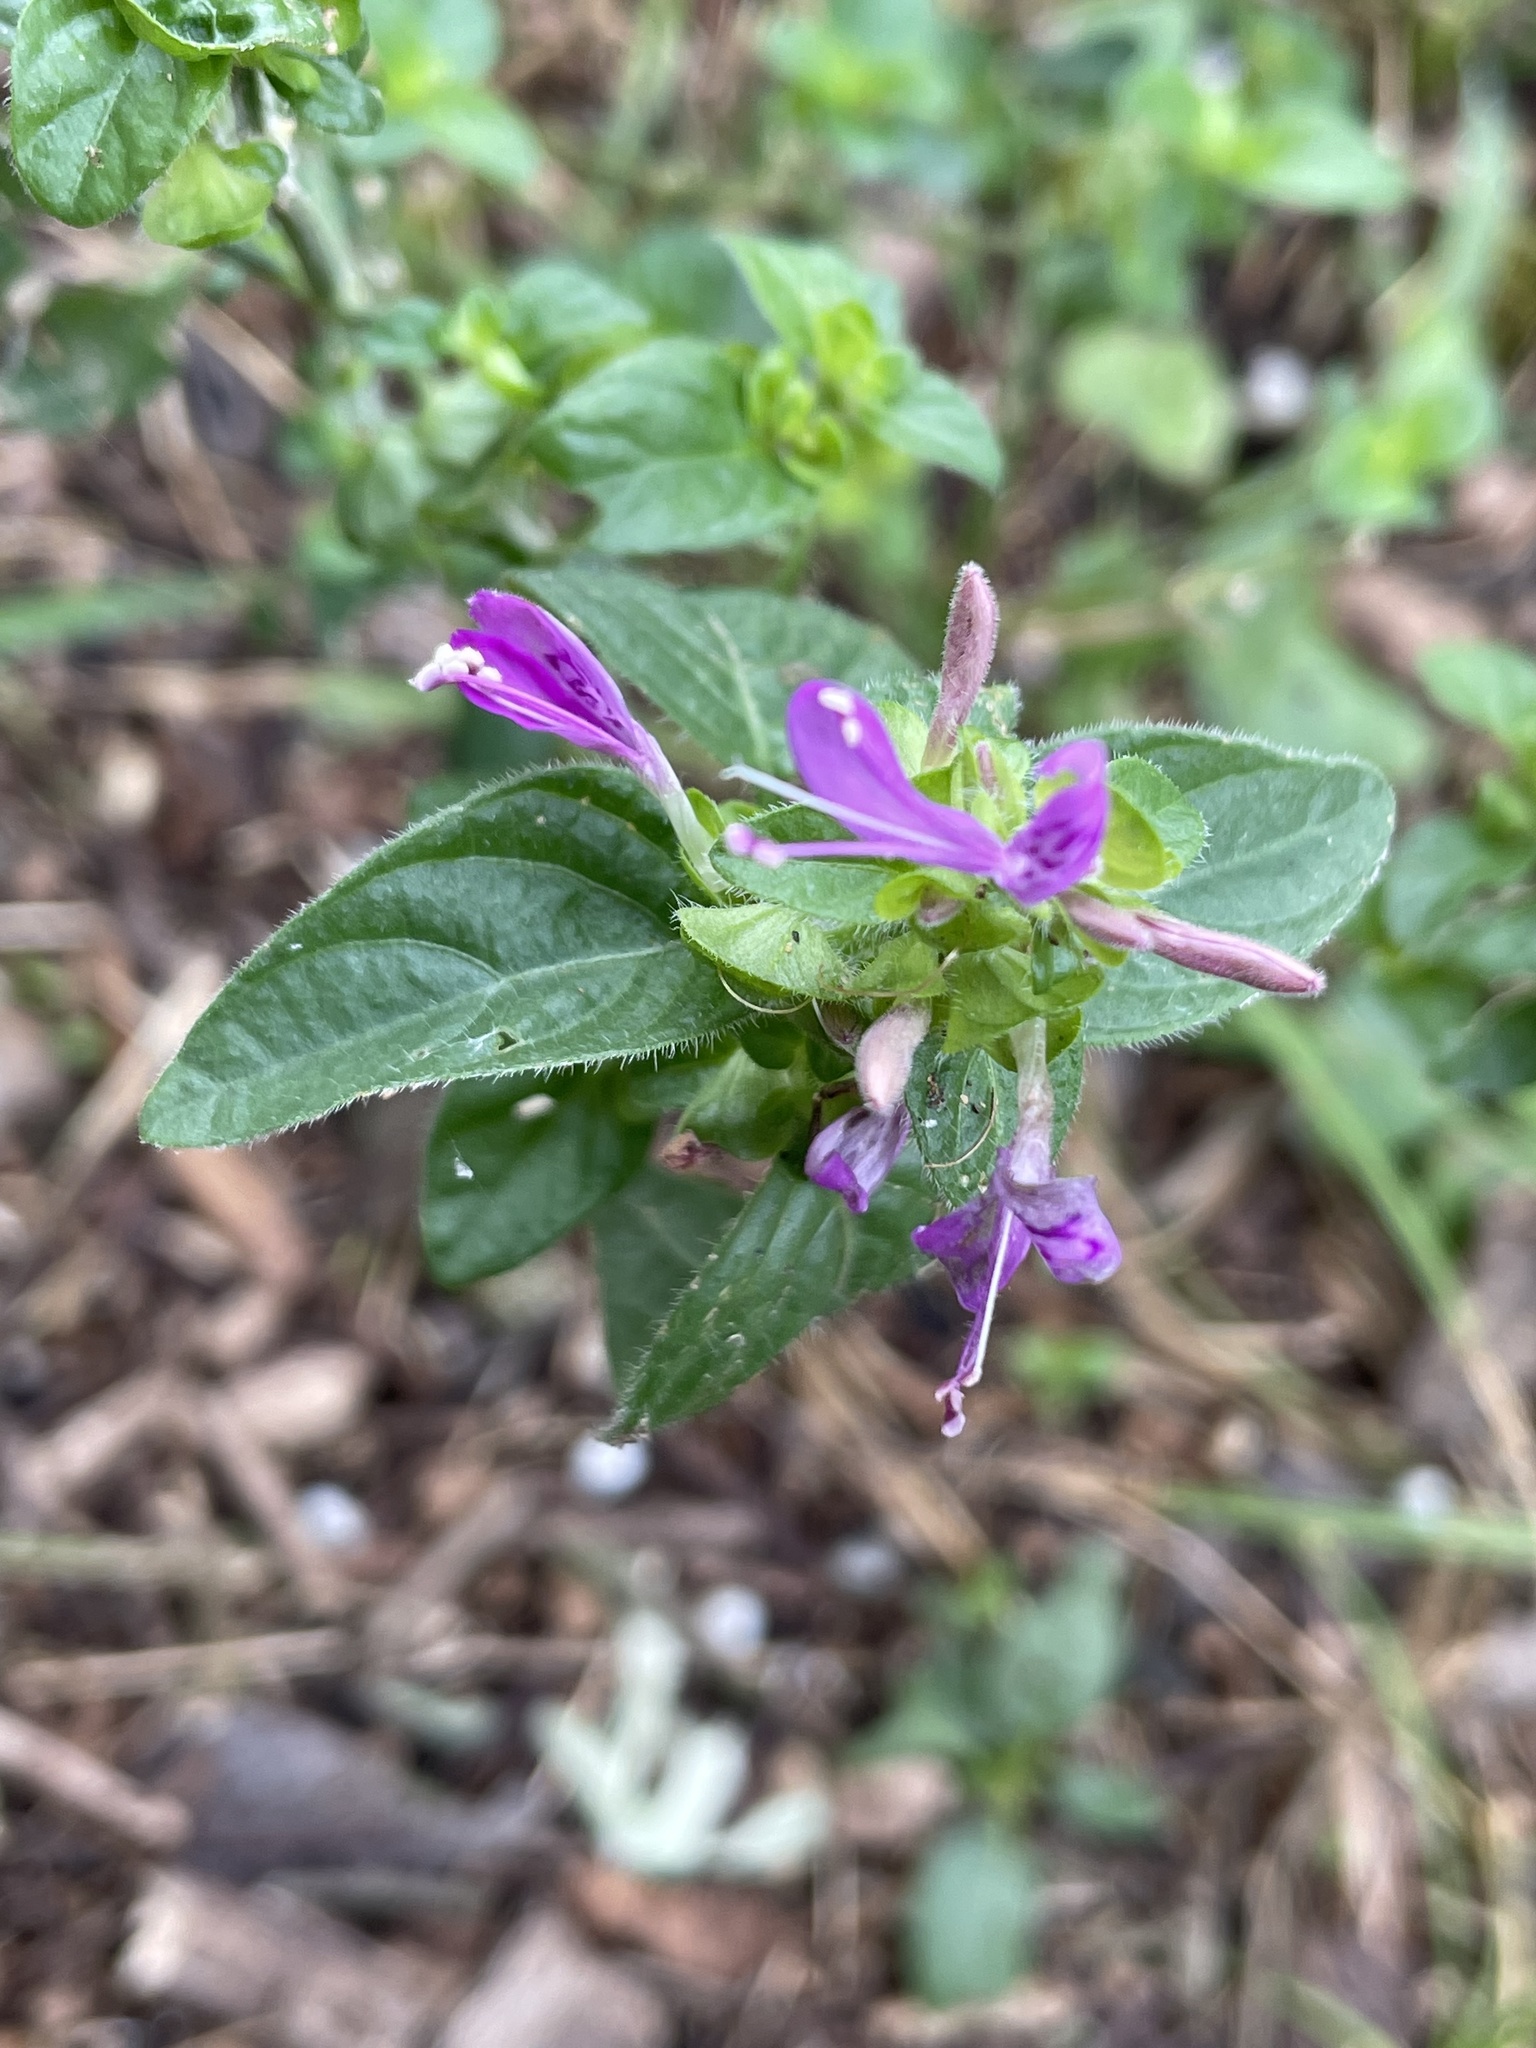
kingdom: Plantae
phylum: Tracheophyta
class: Magnoliopsida
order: Lamiales
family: Acanthaceae
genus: Dicliptera
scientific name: Dicliptera brachiata
